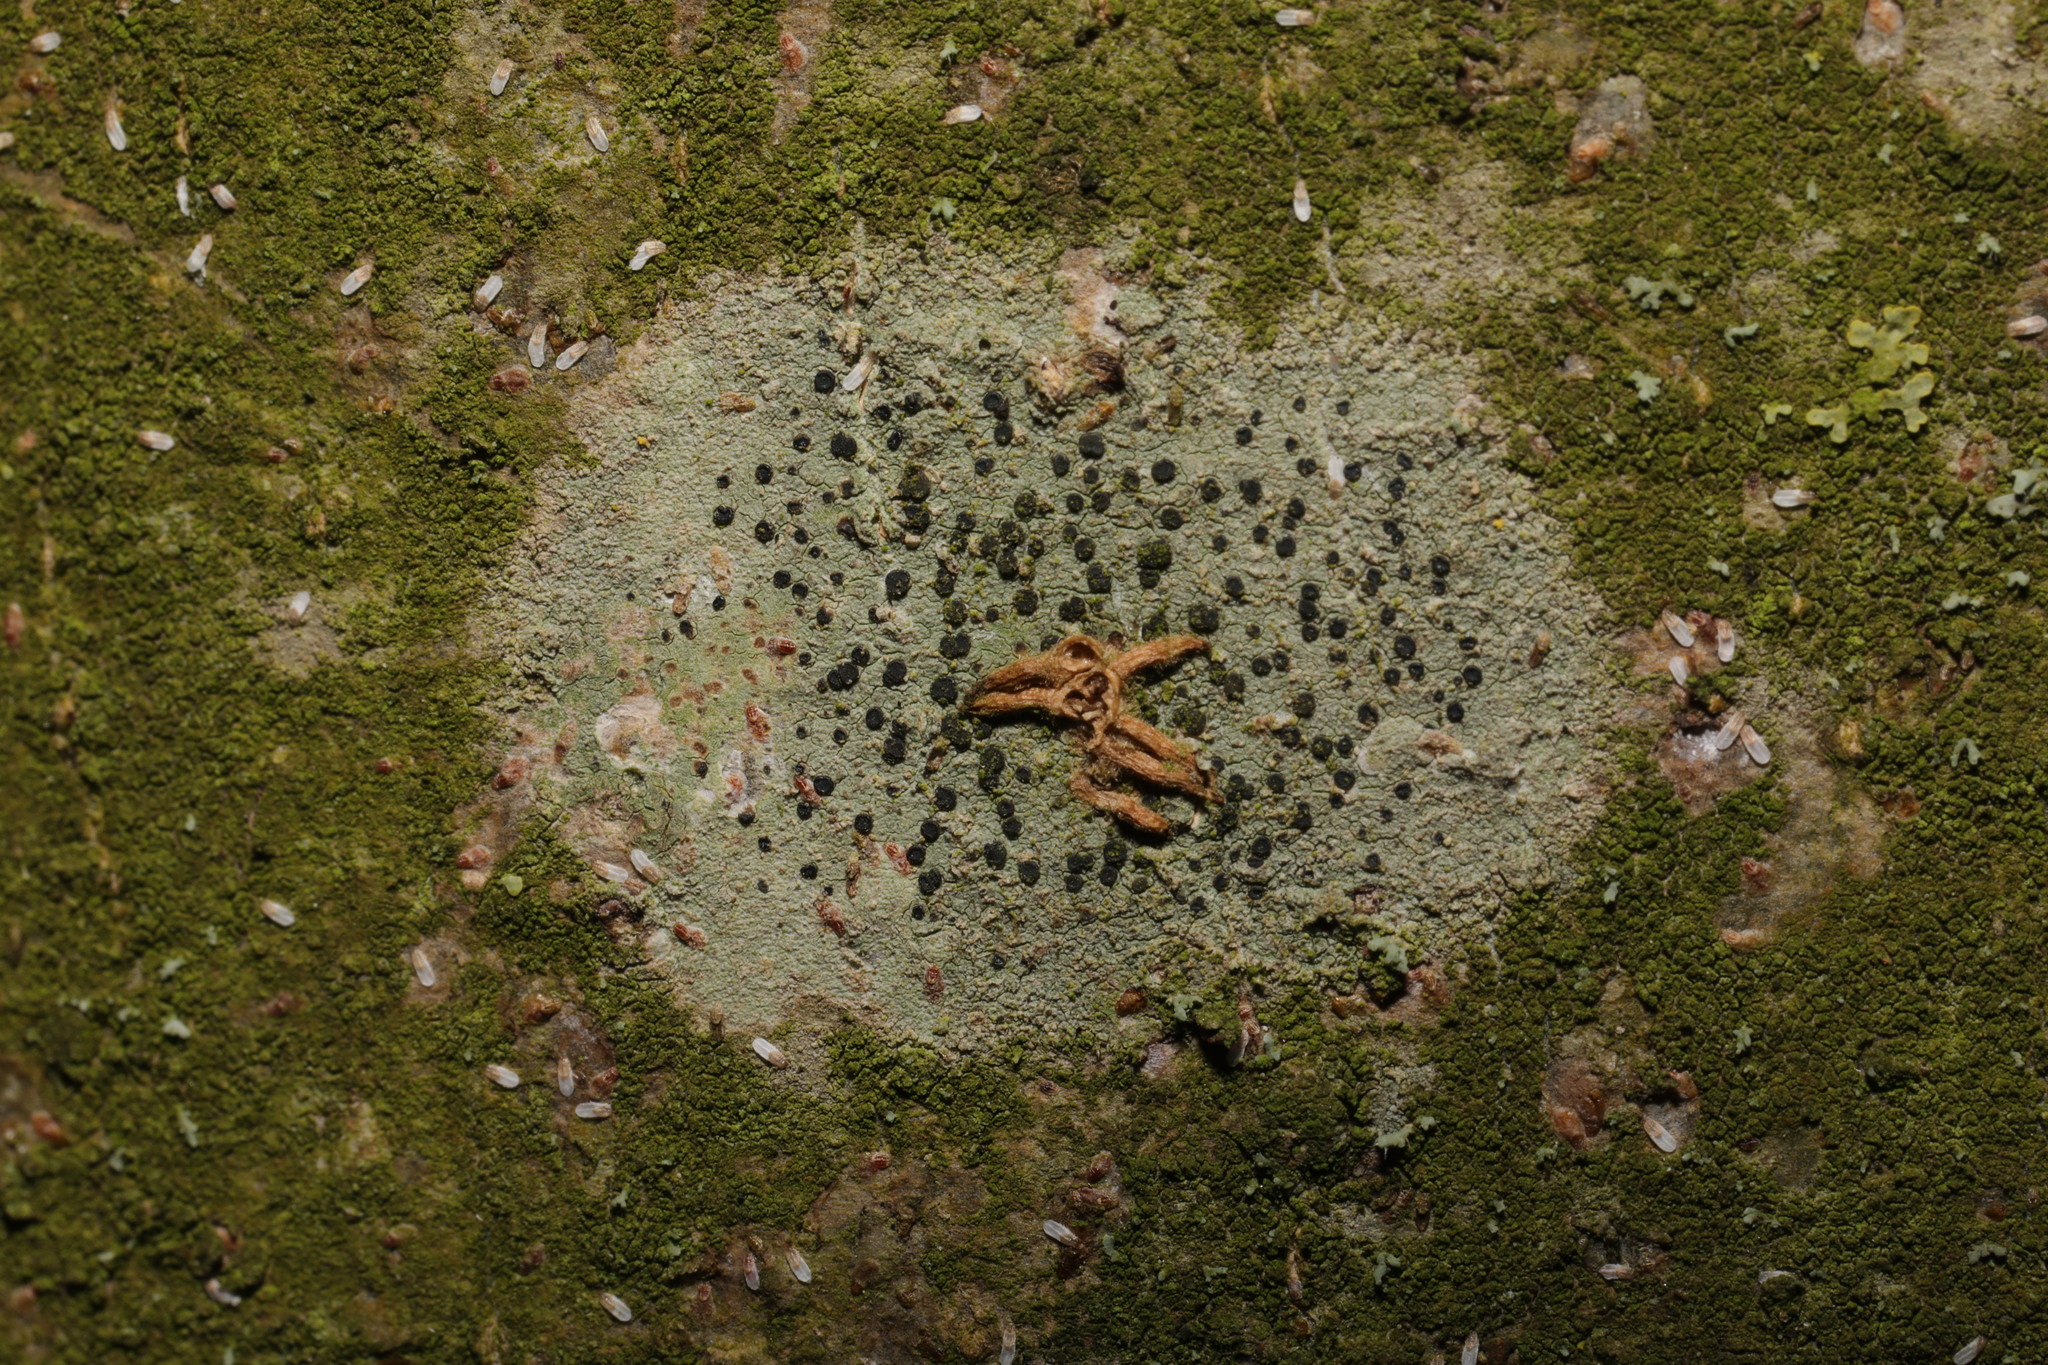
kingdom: Fungi
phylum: Ascomycota
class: Lecanoromycetes
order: Lecanorales
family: Lecanoraceae
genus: Lecidella
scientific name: Lecidella elaeochroma
